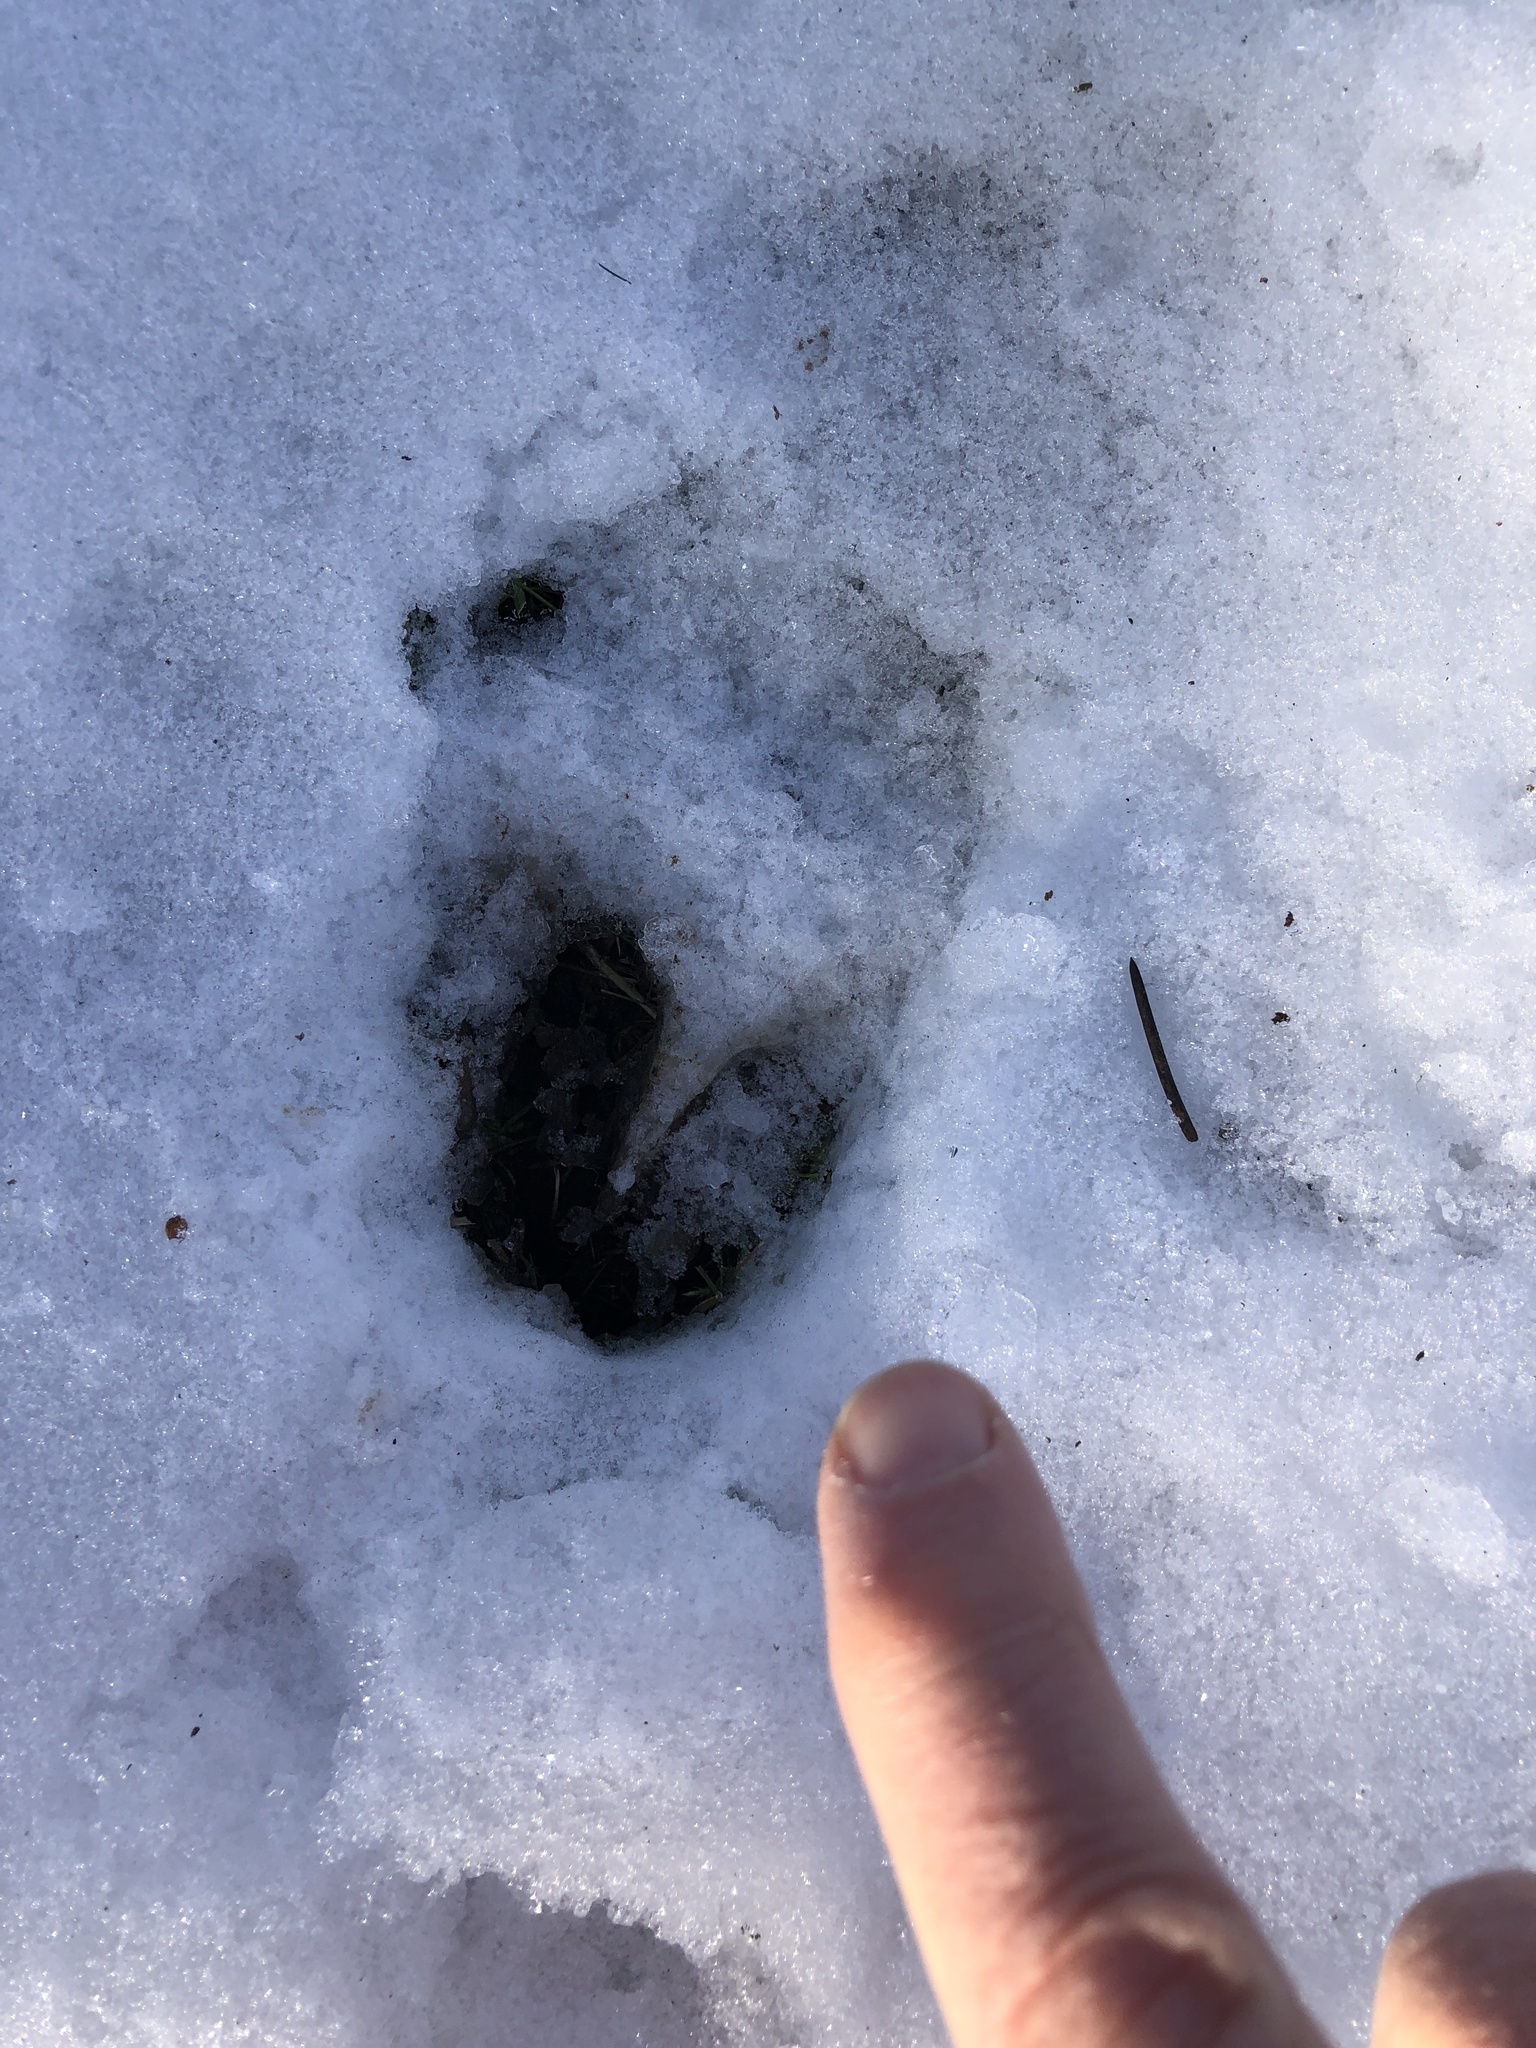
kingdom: Animalia
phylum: Chordata
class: Mammalia
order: Artiodactyla
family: Cervidae
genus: Odocoileus
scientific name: Odocoileus virginianus
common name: White-tailed deer
